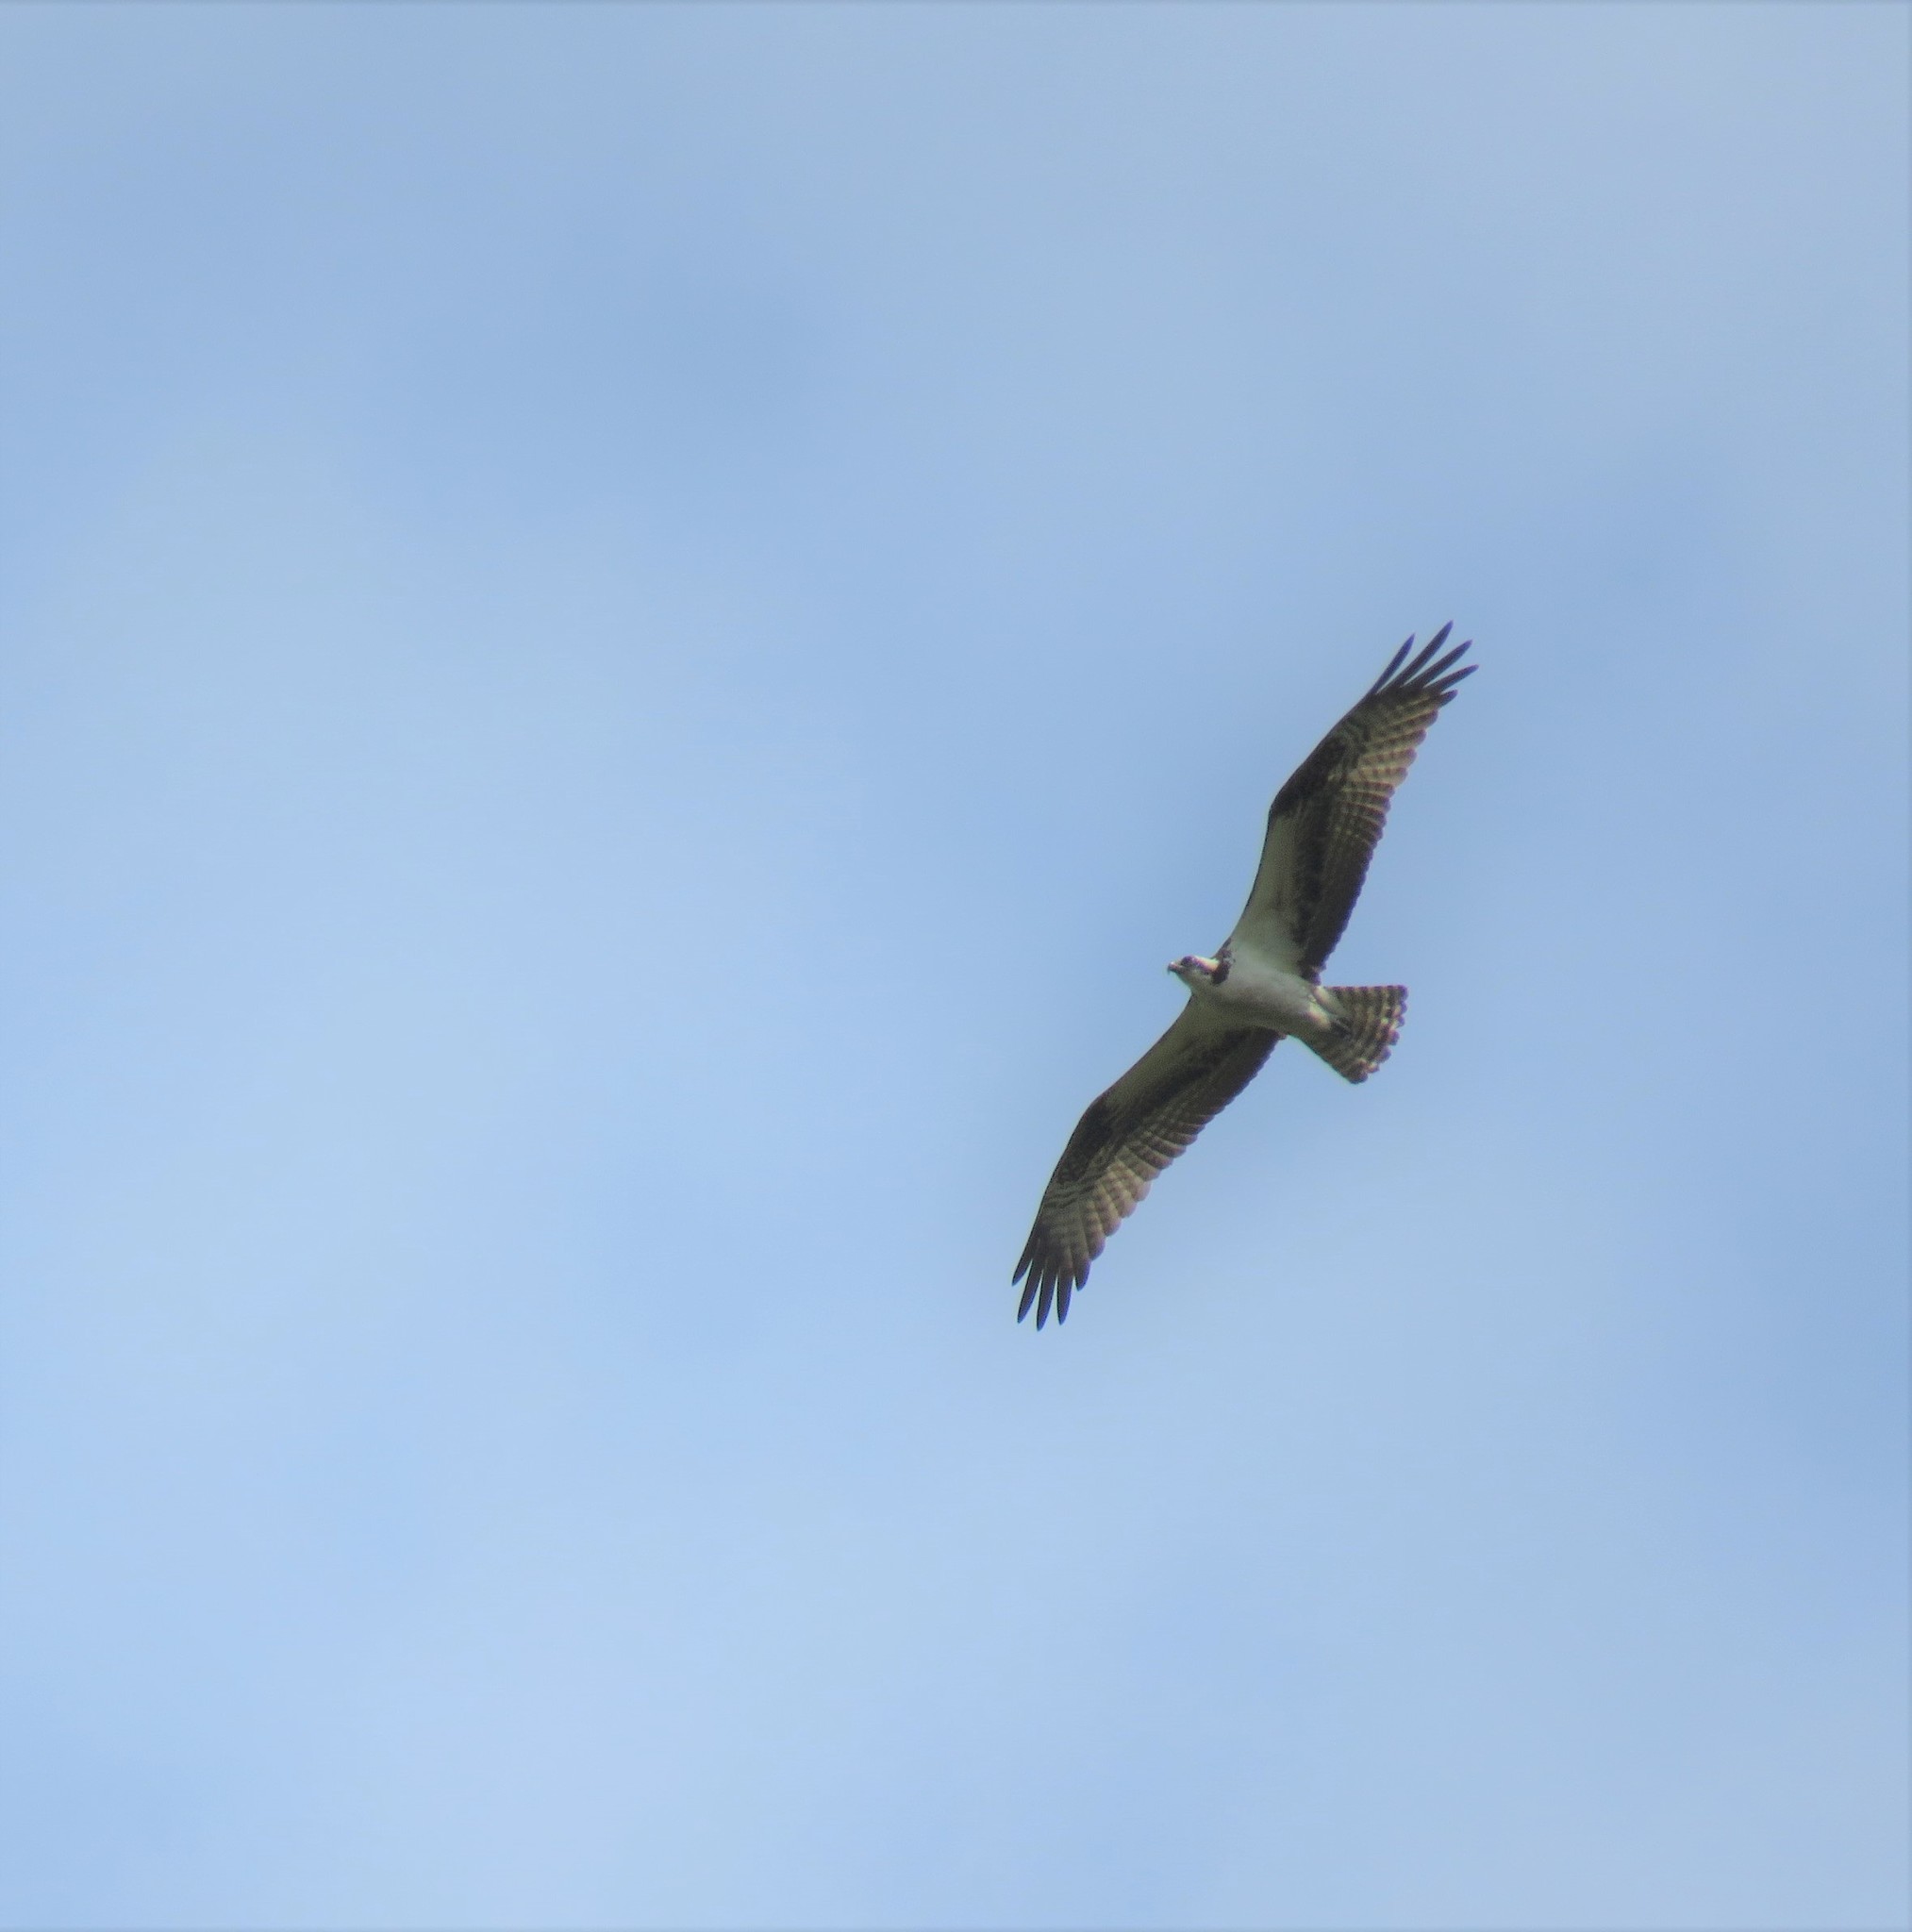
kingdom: Animalia
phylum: Chordata
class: Aves
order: Accipitriformes
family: Pandionidae
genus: Pandion
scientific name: Pandion haliaetus
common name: Osprey
